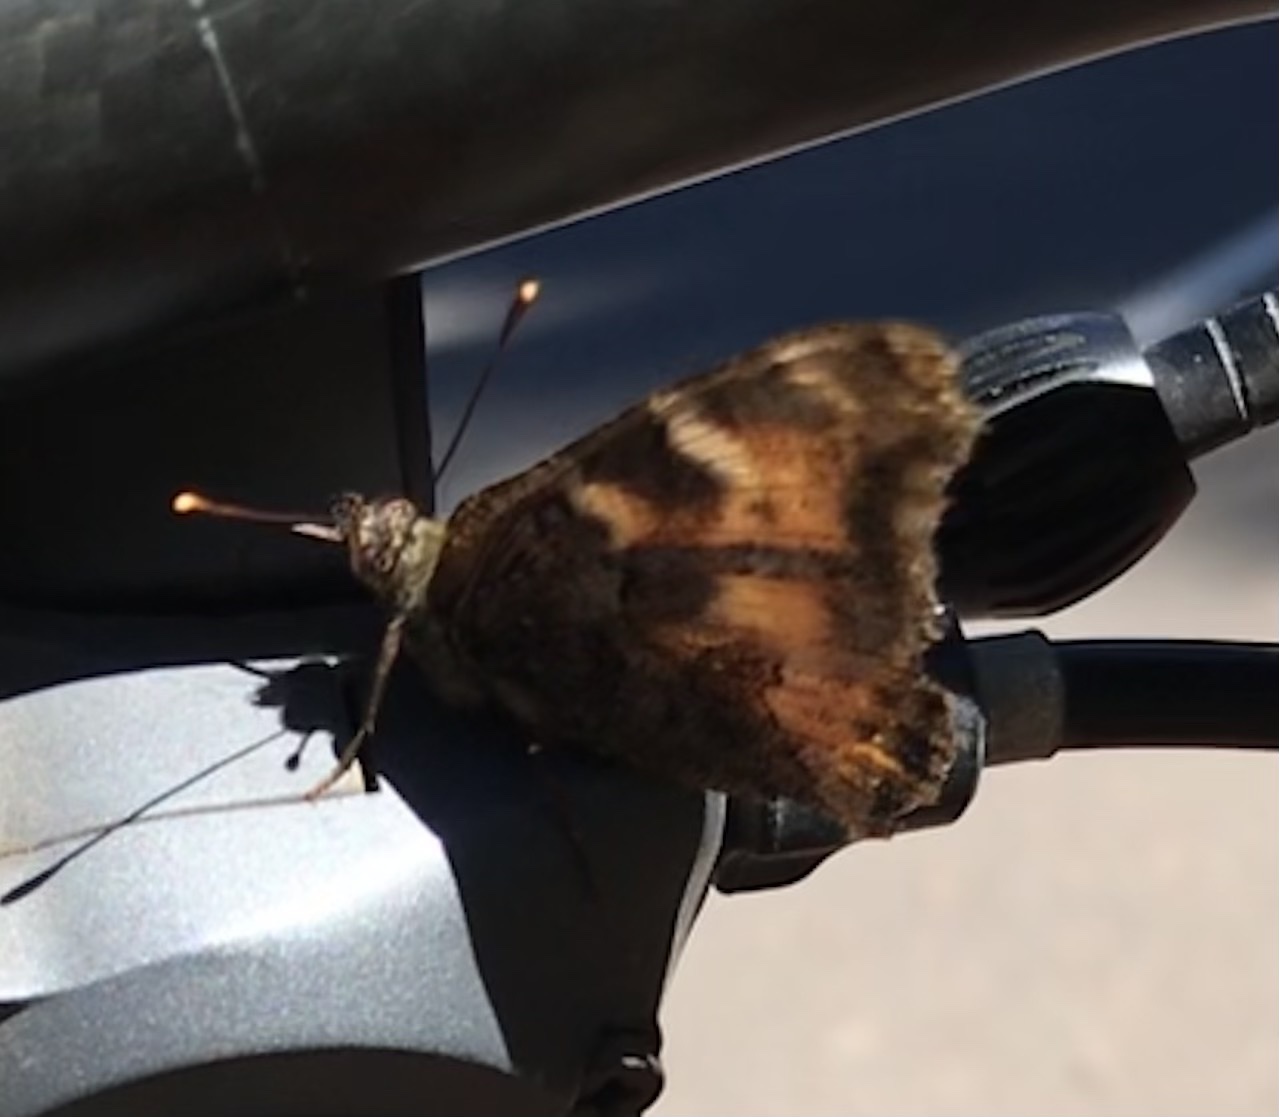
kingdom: Animalia
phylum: Arthropoda
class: Insecta
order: Lepidoptera
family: Nymphalidae
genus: Nymphalis
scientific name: Nymphalis californica
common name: California tortoiseshell
